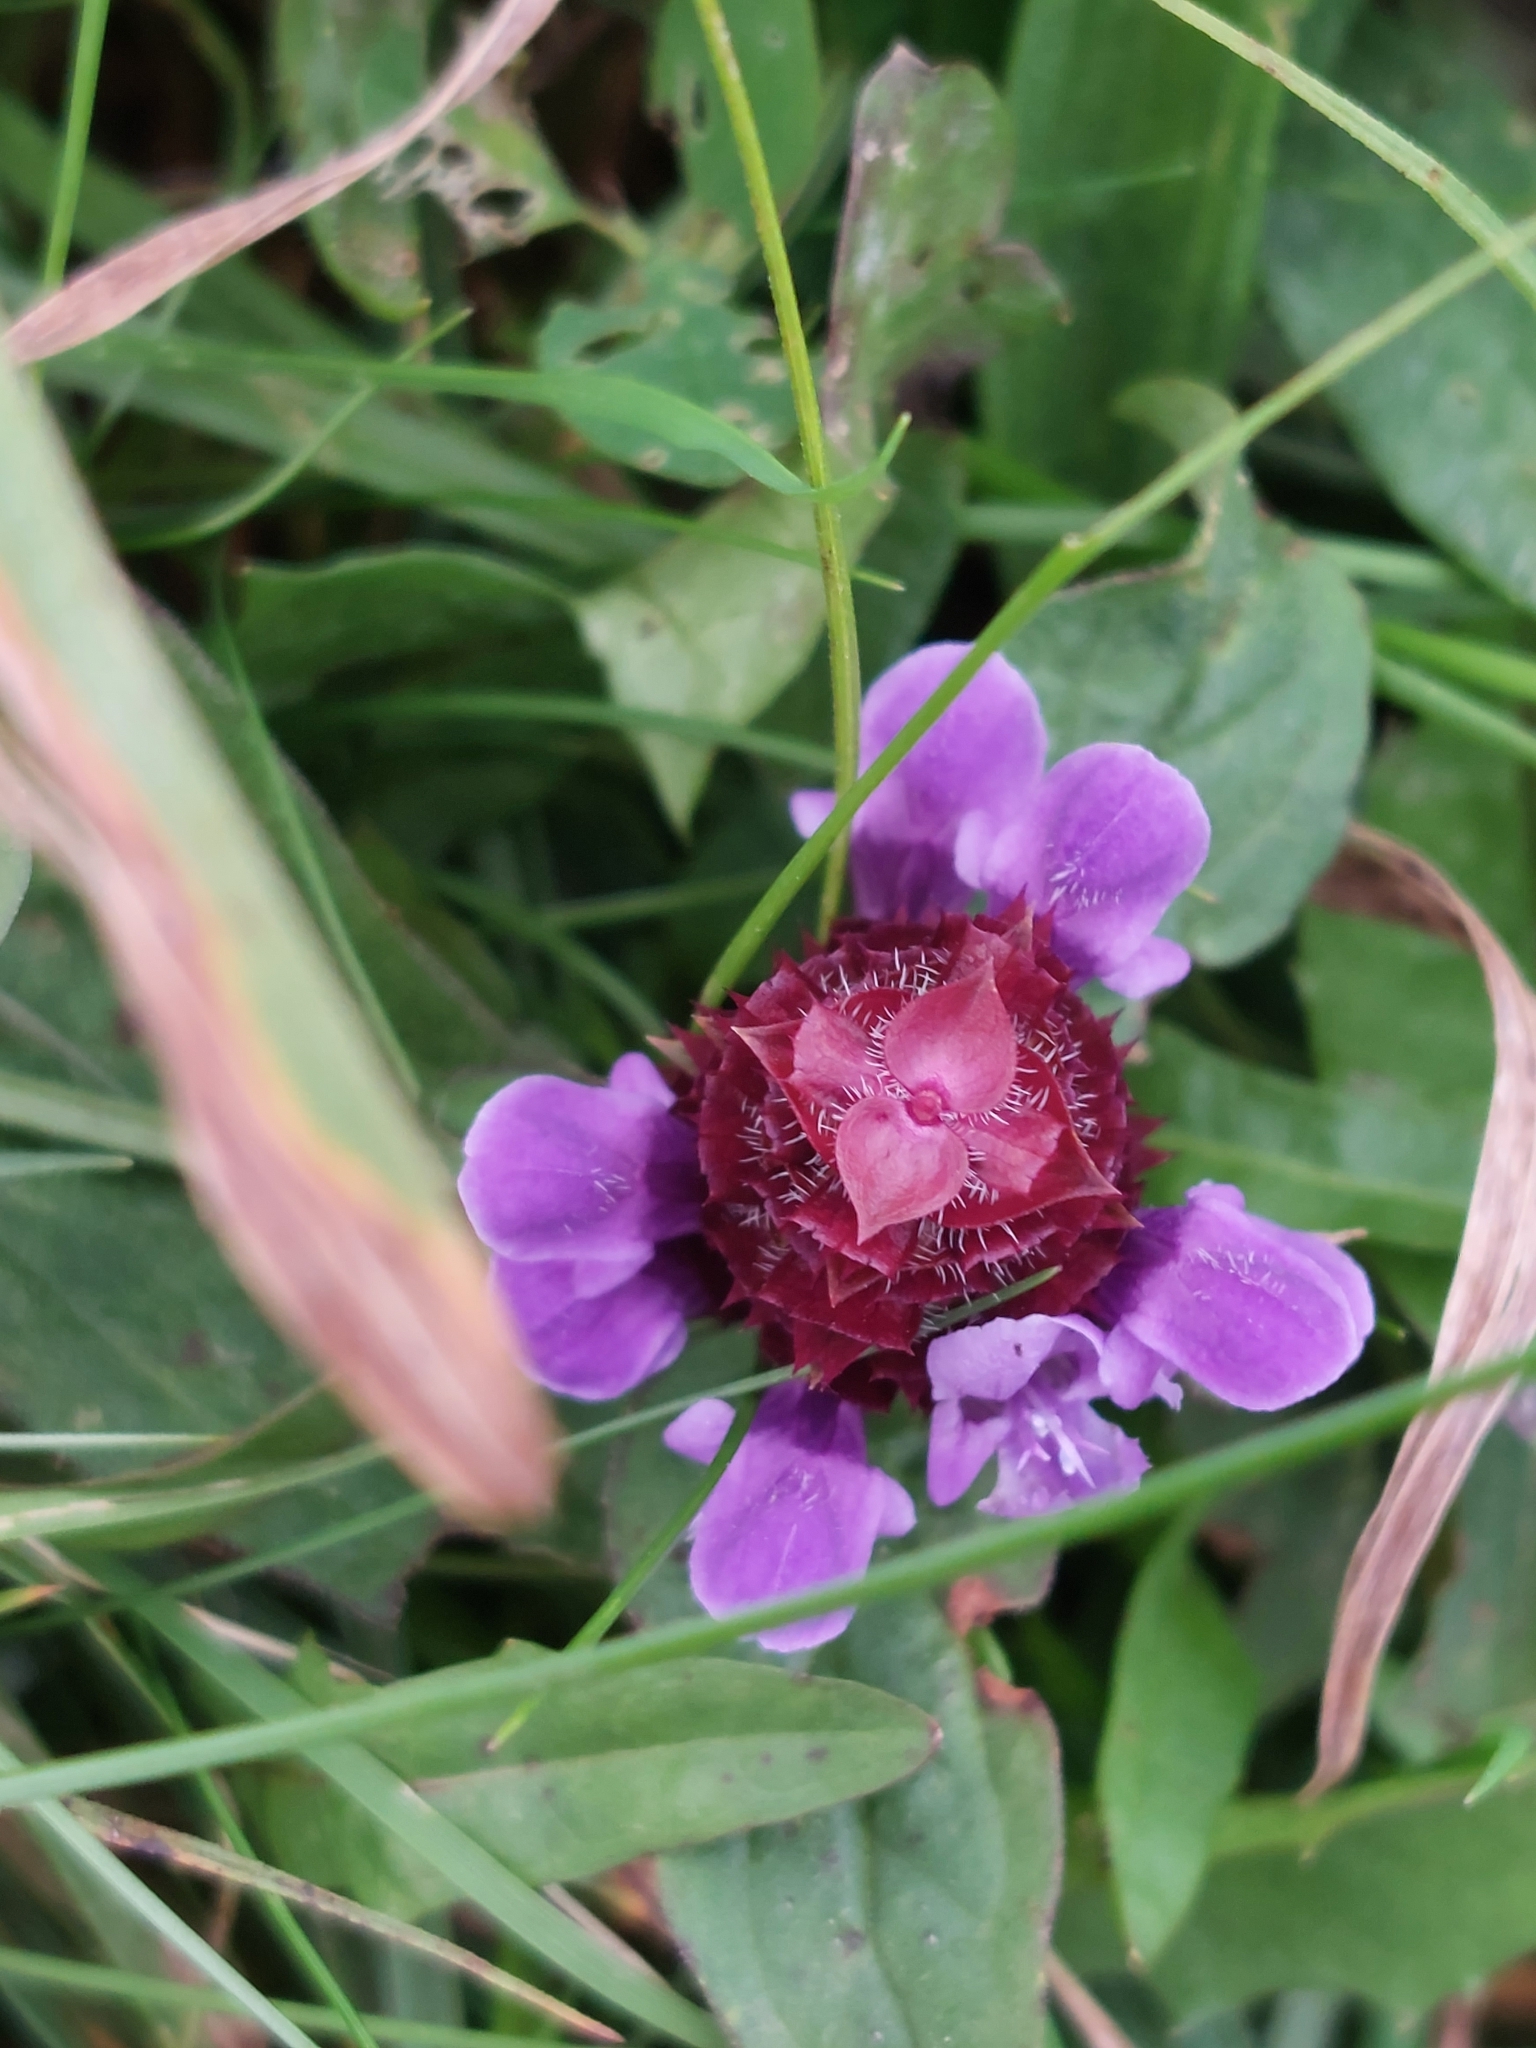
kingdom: Plantae
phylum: Tracheophyta
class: Magnoliopsida
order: Lamiales
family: Lamiaceae
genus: Prunella
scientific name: Prunella vulgaris
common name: Heal-all
